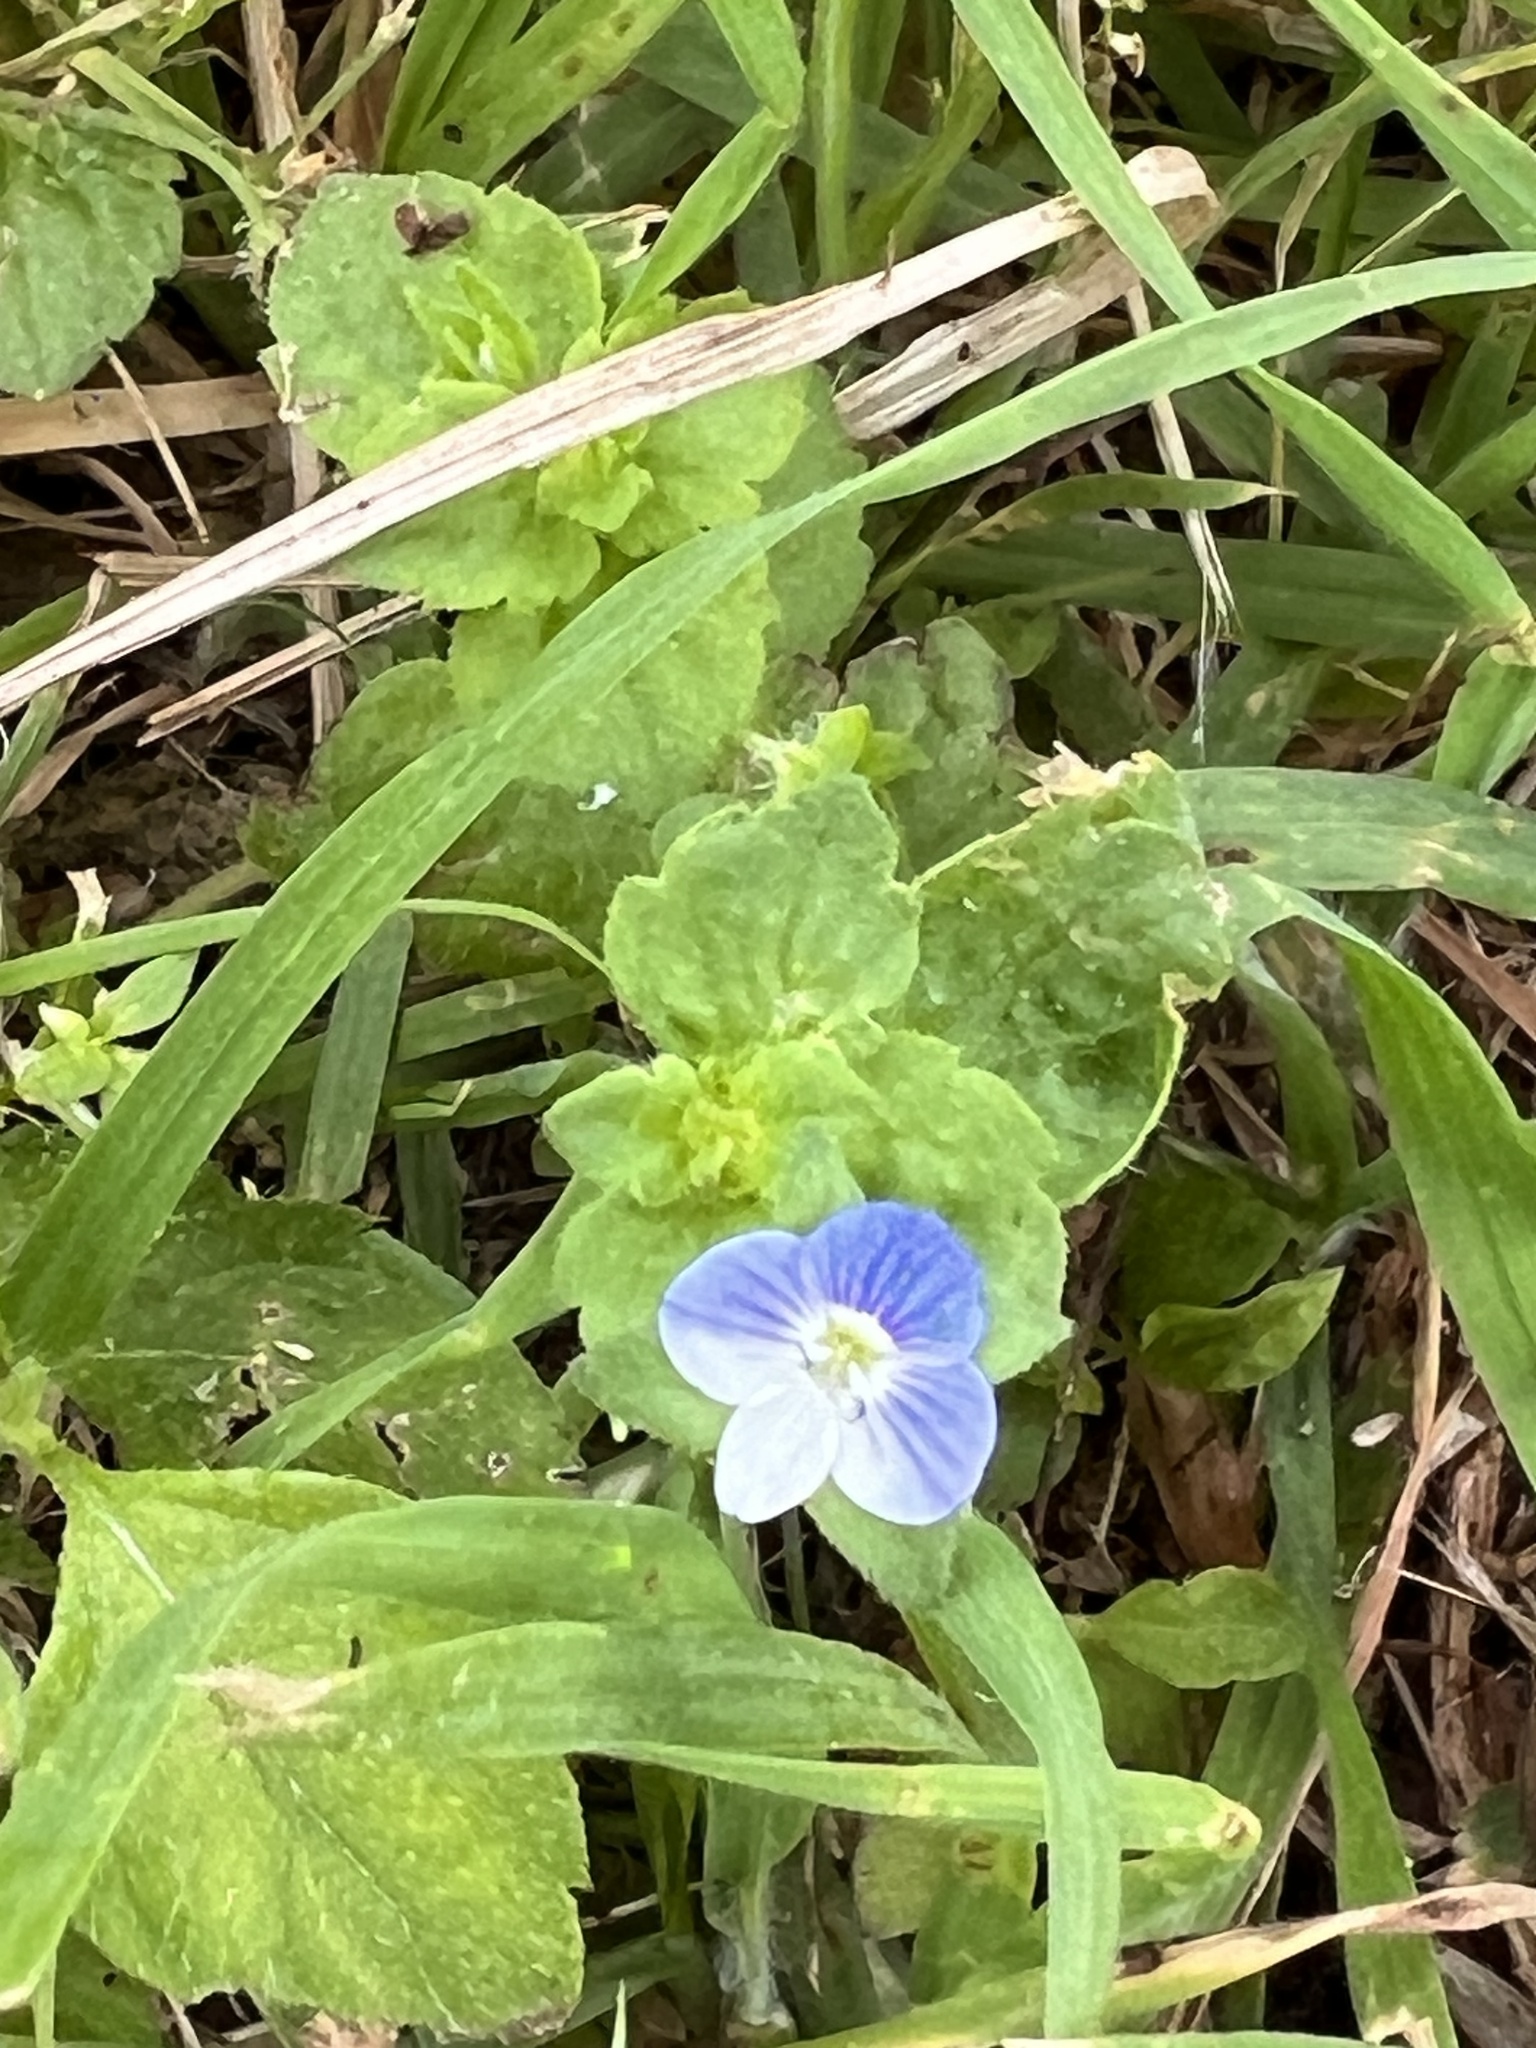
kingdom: Plantae
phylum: Tracheophyta
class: Magnoliopsida
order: Lamiales
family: Plantaginaceae
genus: Veronica
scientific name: Veronica persica
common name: Common field-speedwell
